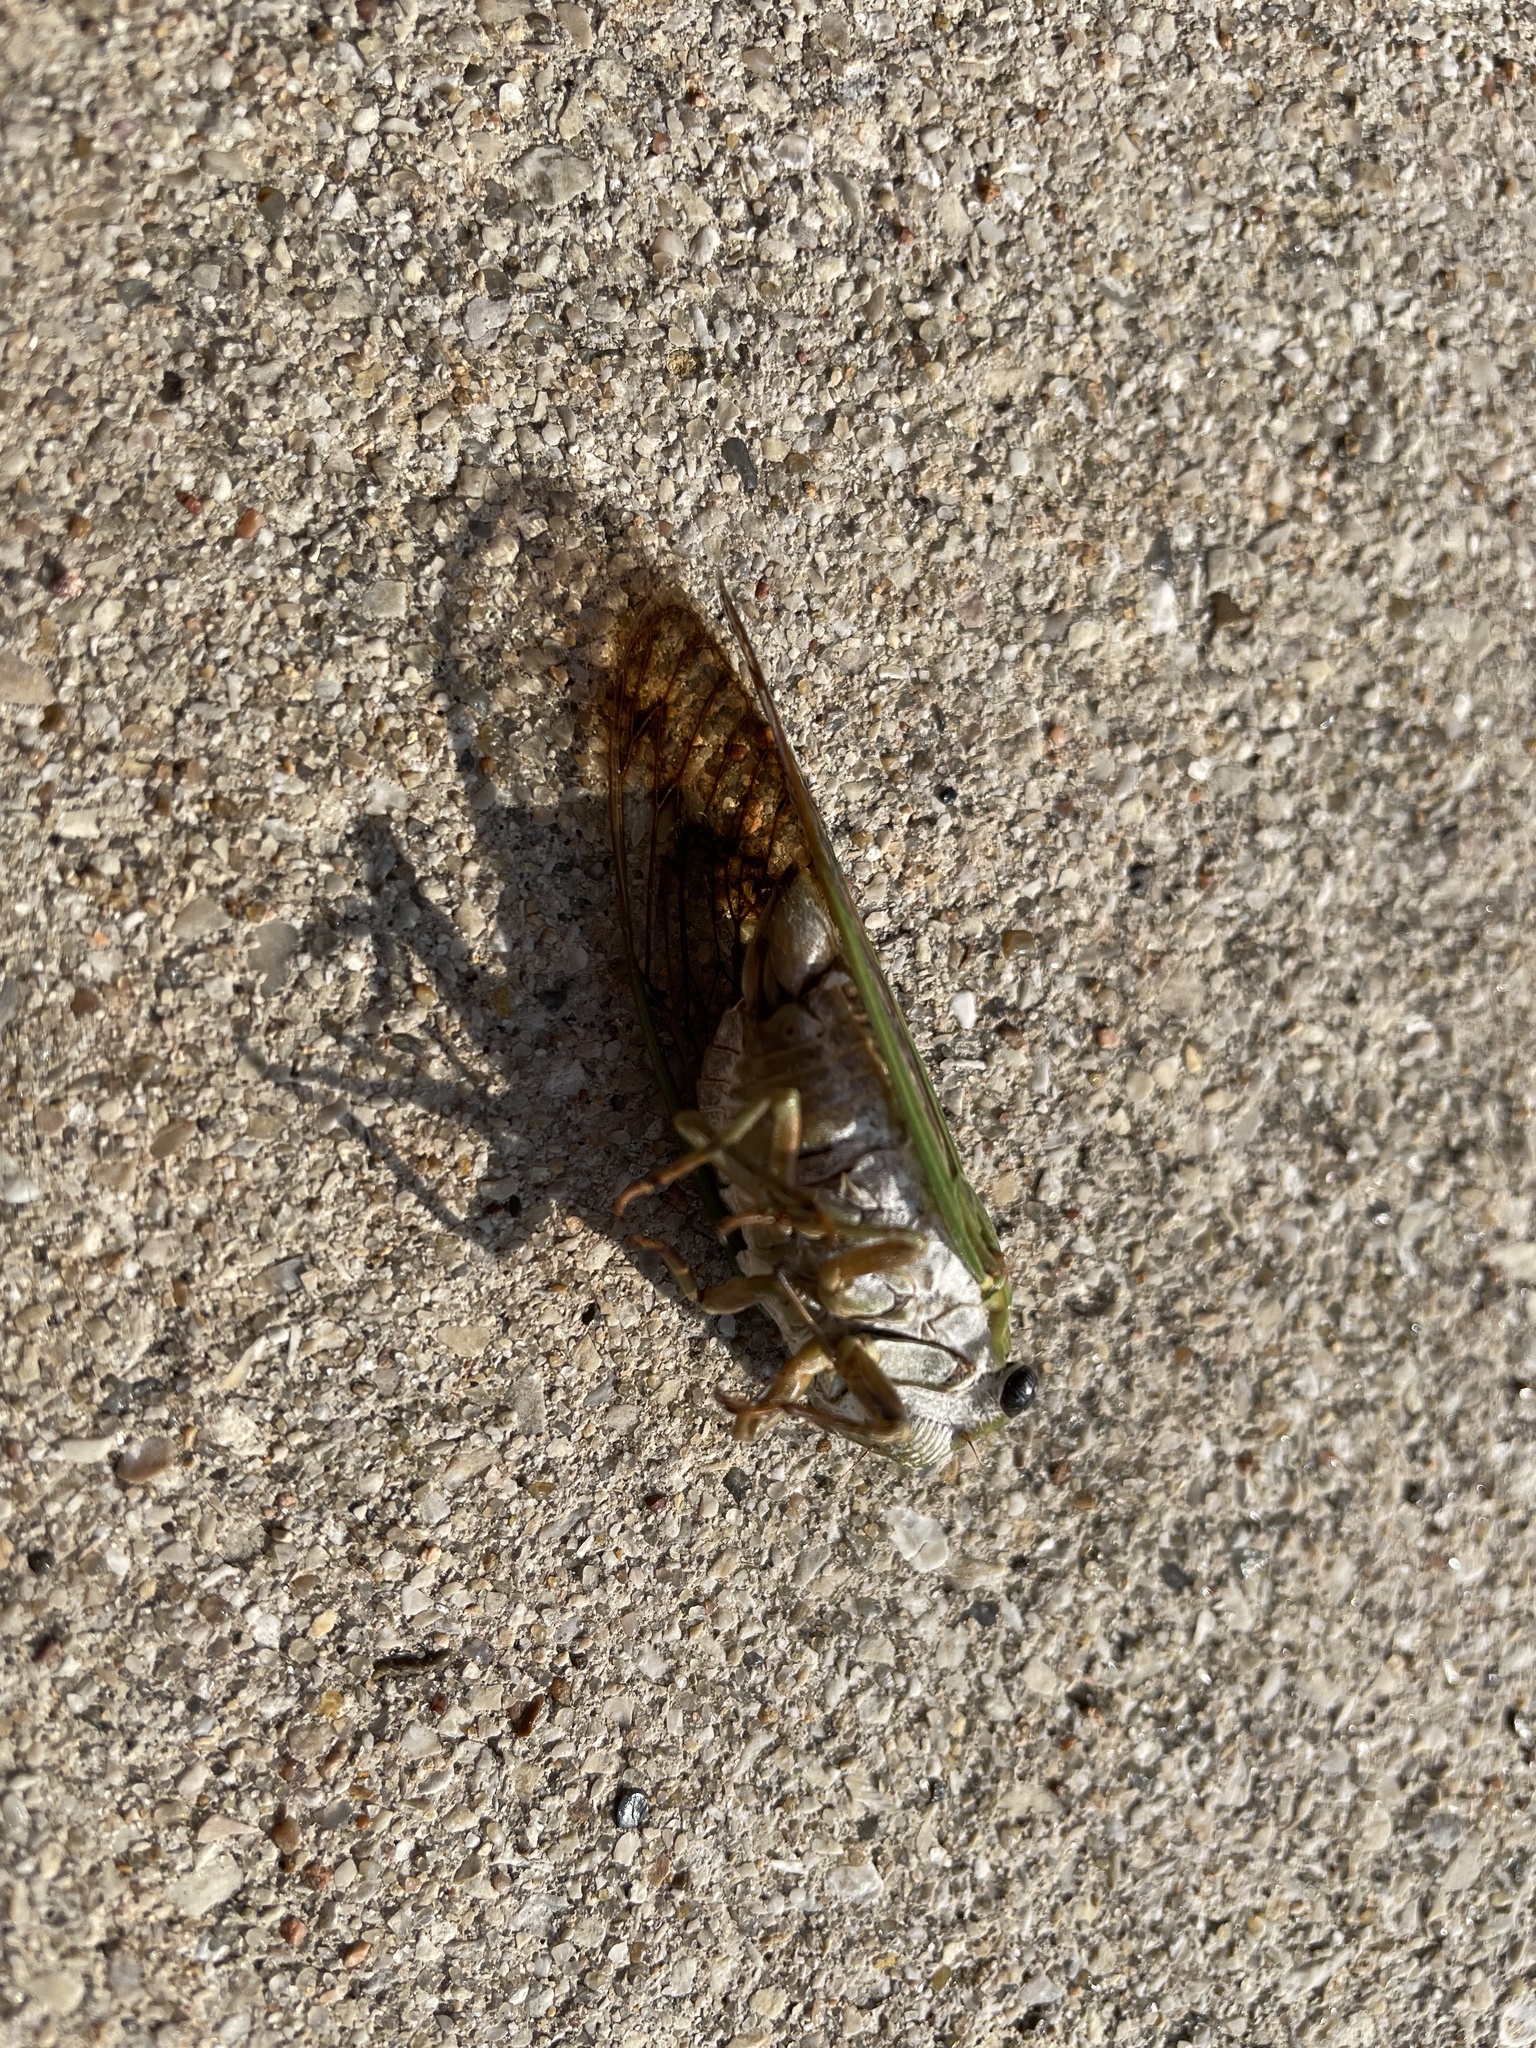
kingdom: Animalia
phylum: Arthropoda
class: Insecta
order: Hemiptera
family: Cicadidae
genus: Neotibicen
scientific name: Neotibicen superbus
